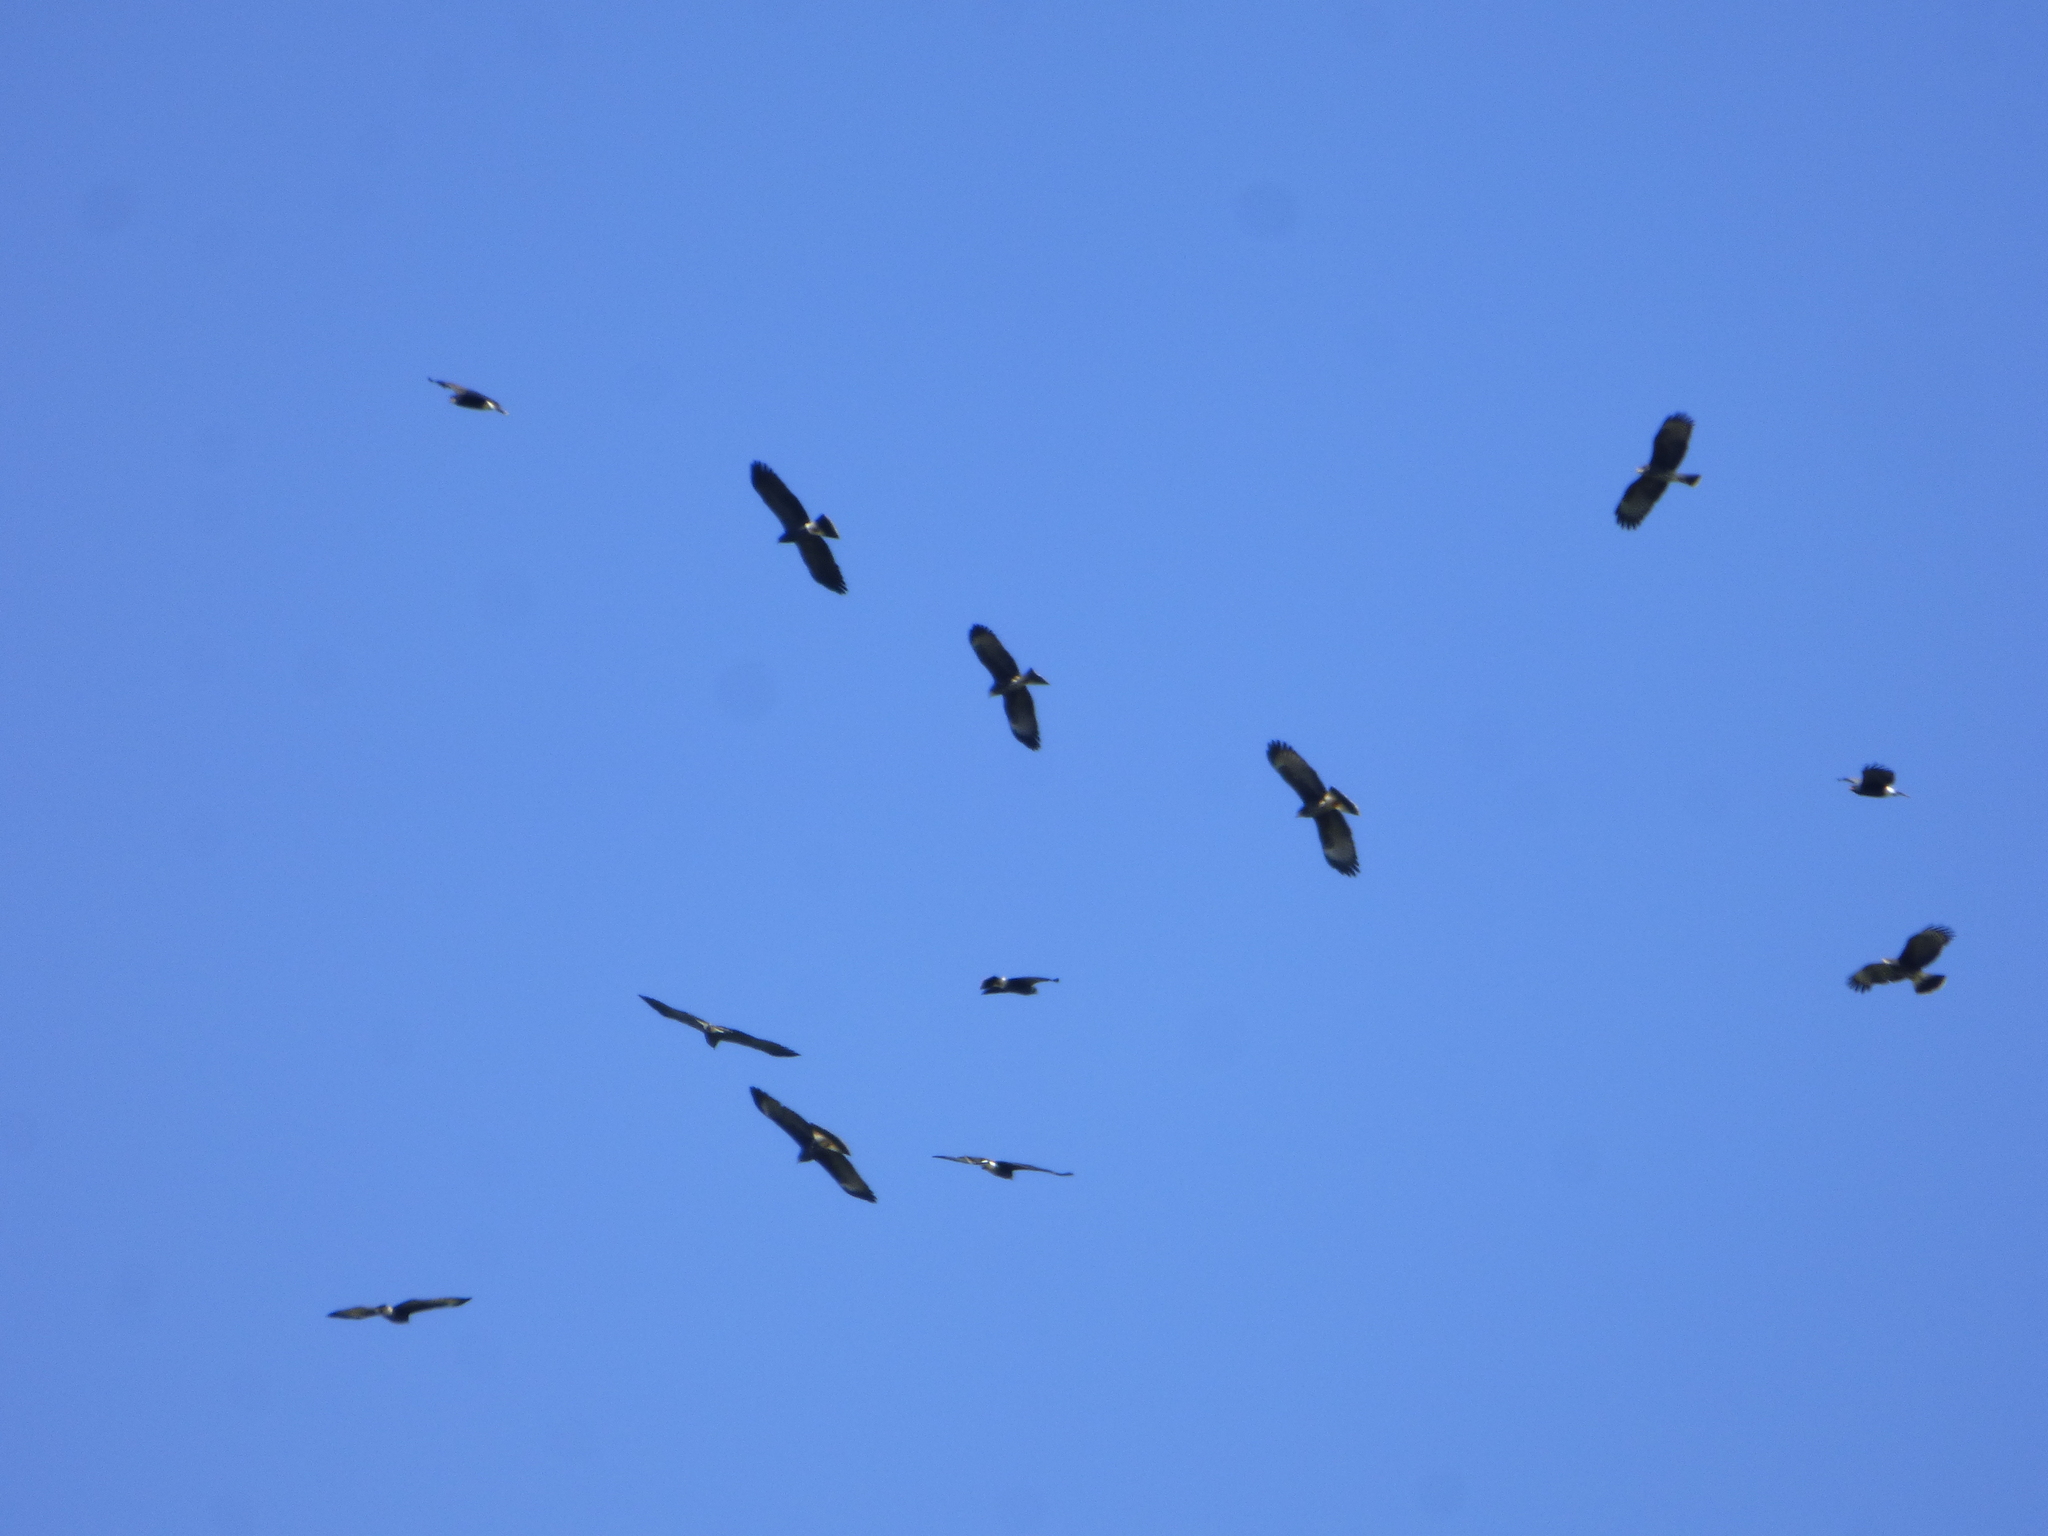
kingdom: Animalia
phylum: Chordata
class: Aves
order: Accipitriformes
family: Accipitridae
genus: Rostrhamus
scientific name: Rostrhamus sociabilis
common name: Snail kite
